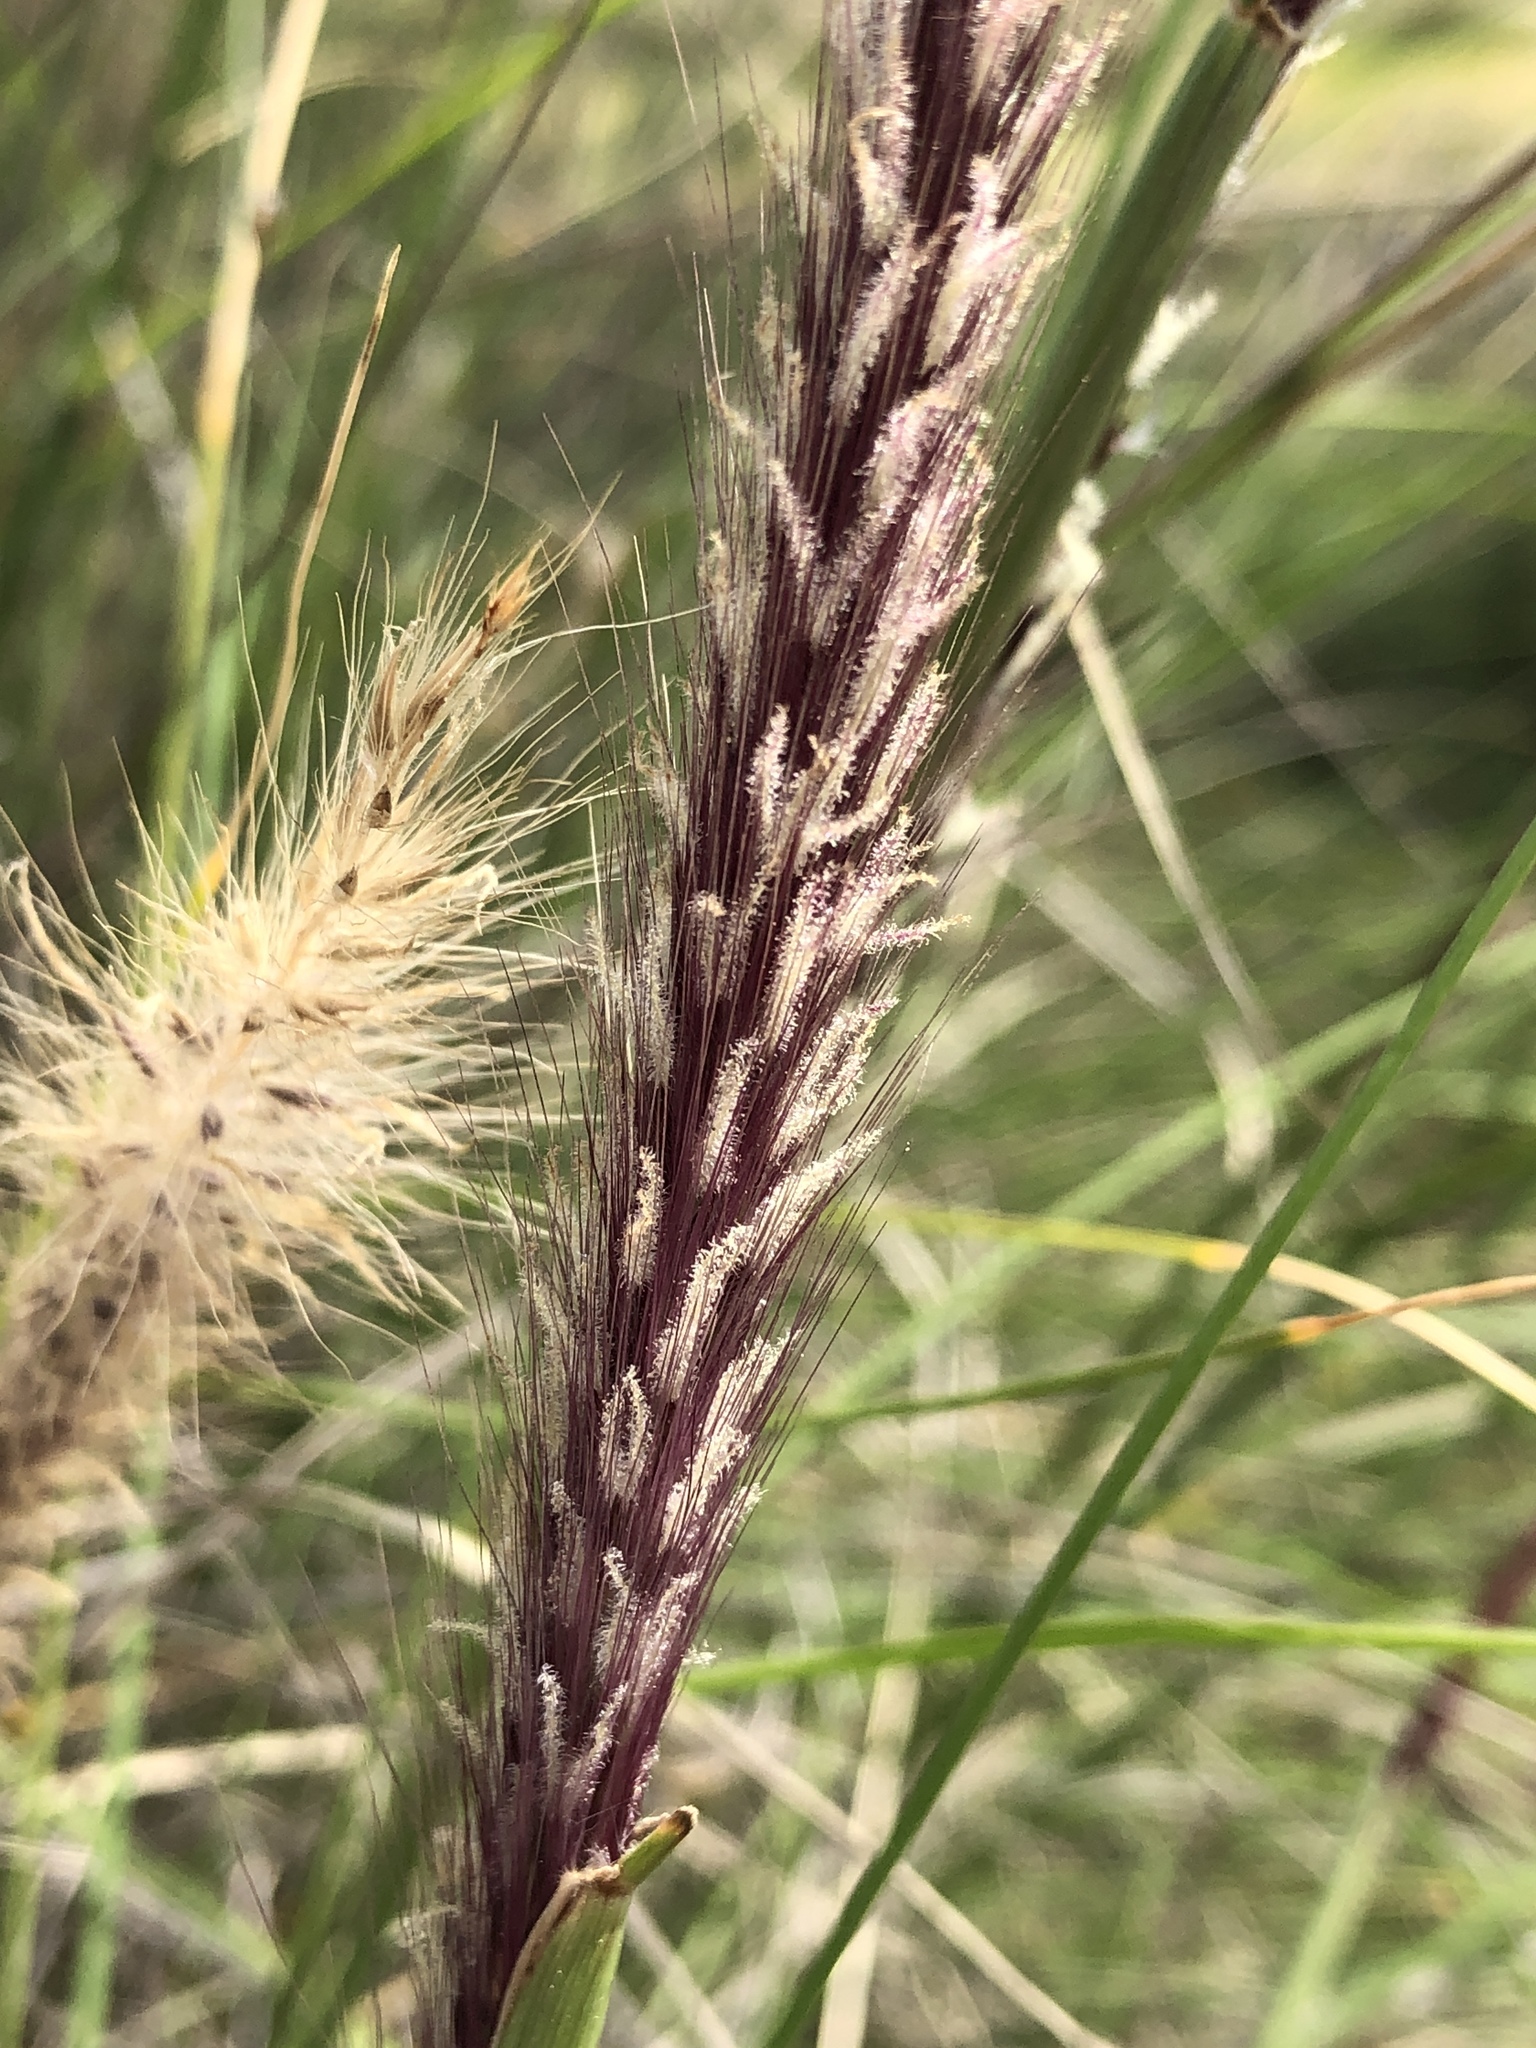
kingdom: Plantae
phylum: Tracheophyta
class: Liliopsida
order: Poales
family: Poaceae
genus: Cenchrus
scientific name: Cenchrus setaceus
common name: Crimson fountaingrass
